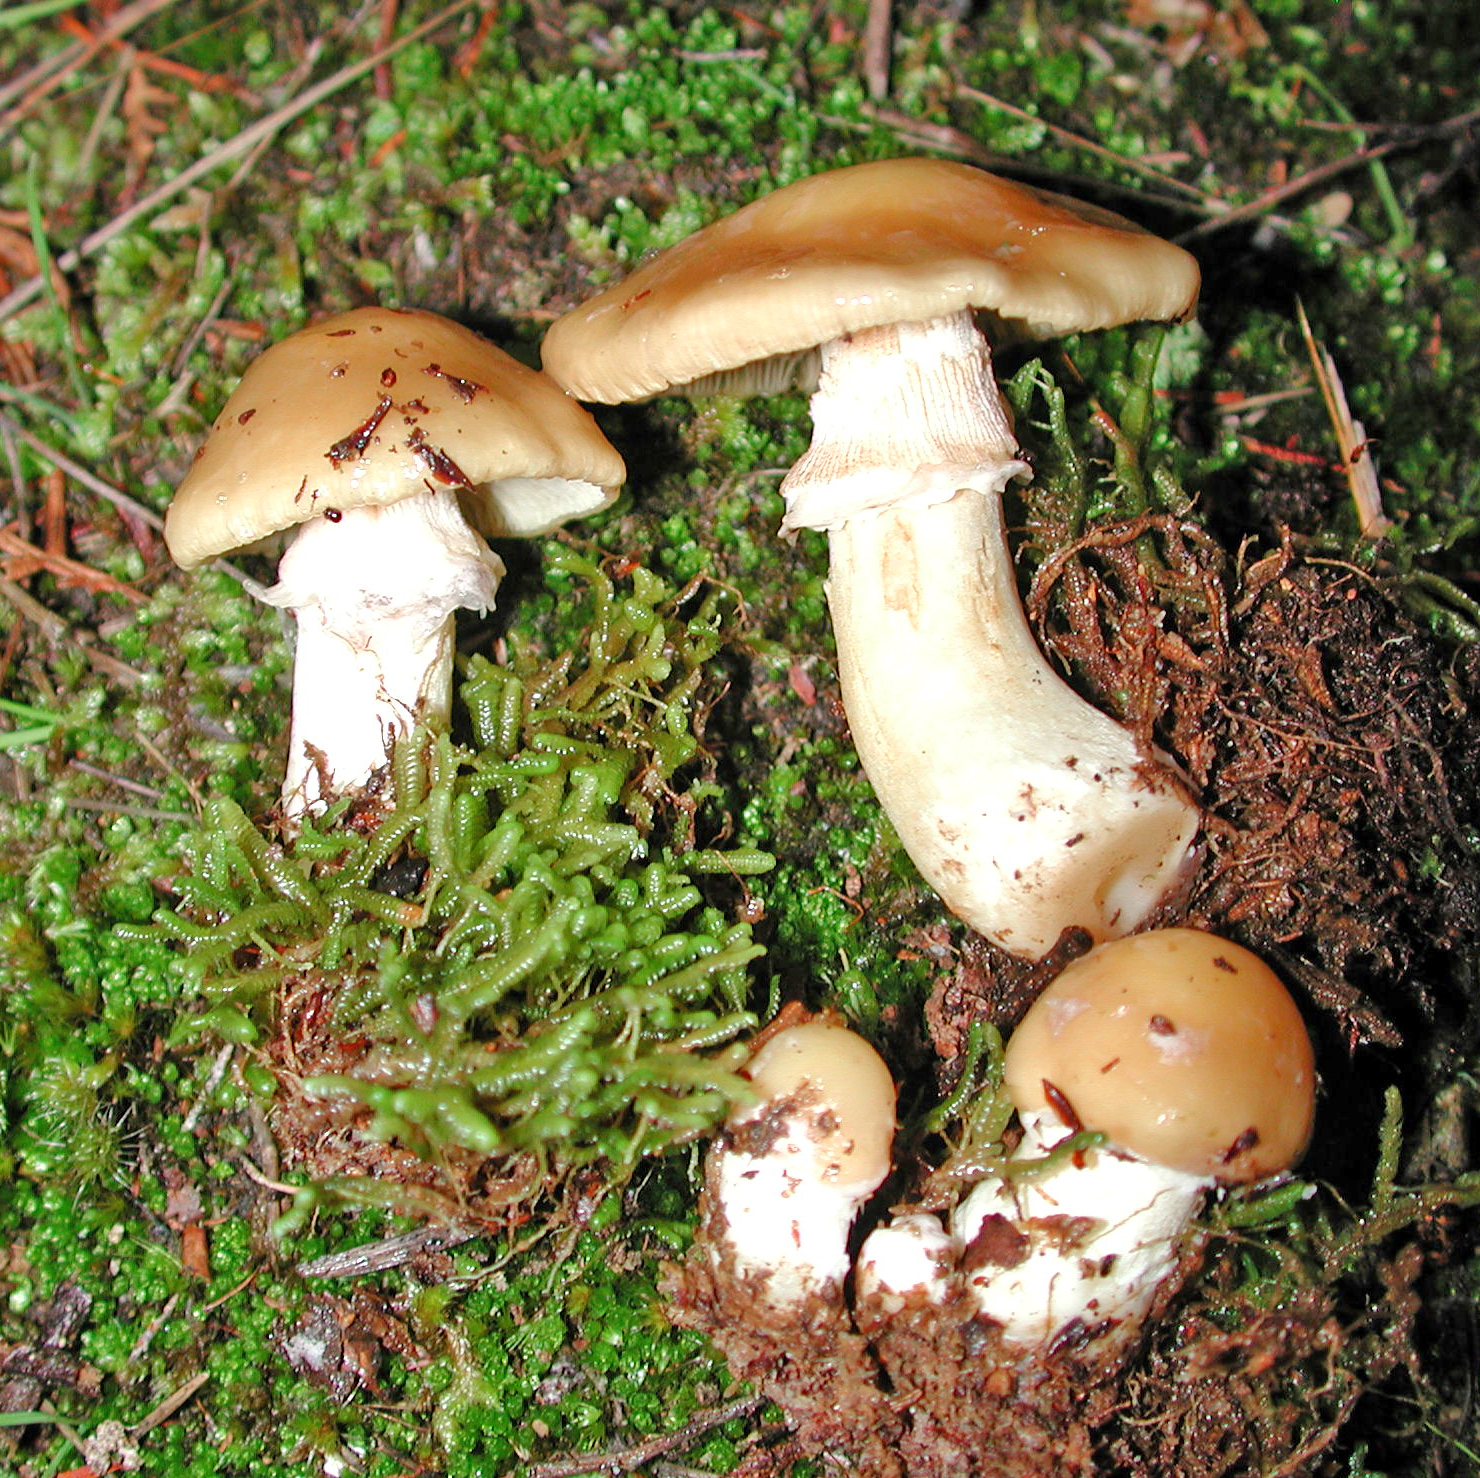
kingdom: Fungi
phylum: Basidiomycota
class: Agaricomycetes
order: Agaricales
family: Cortinariaceae
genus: Cortinarius
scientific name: Cortinarius achrous
